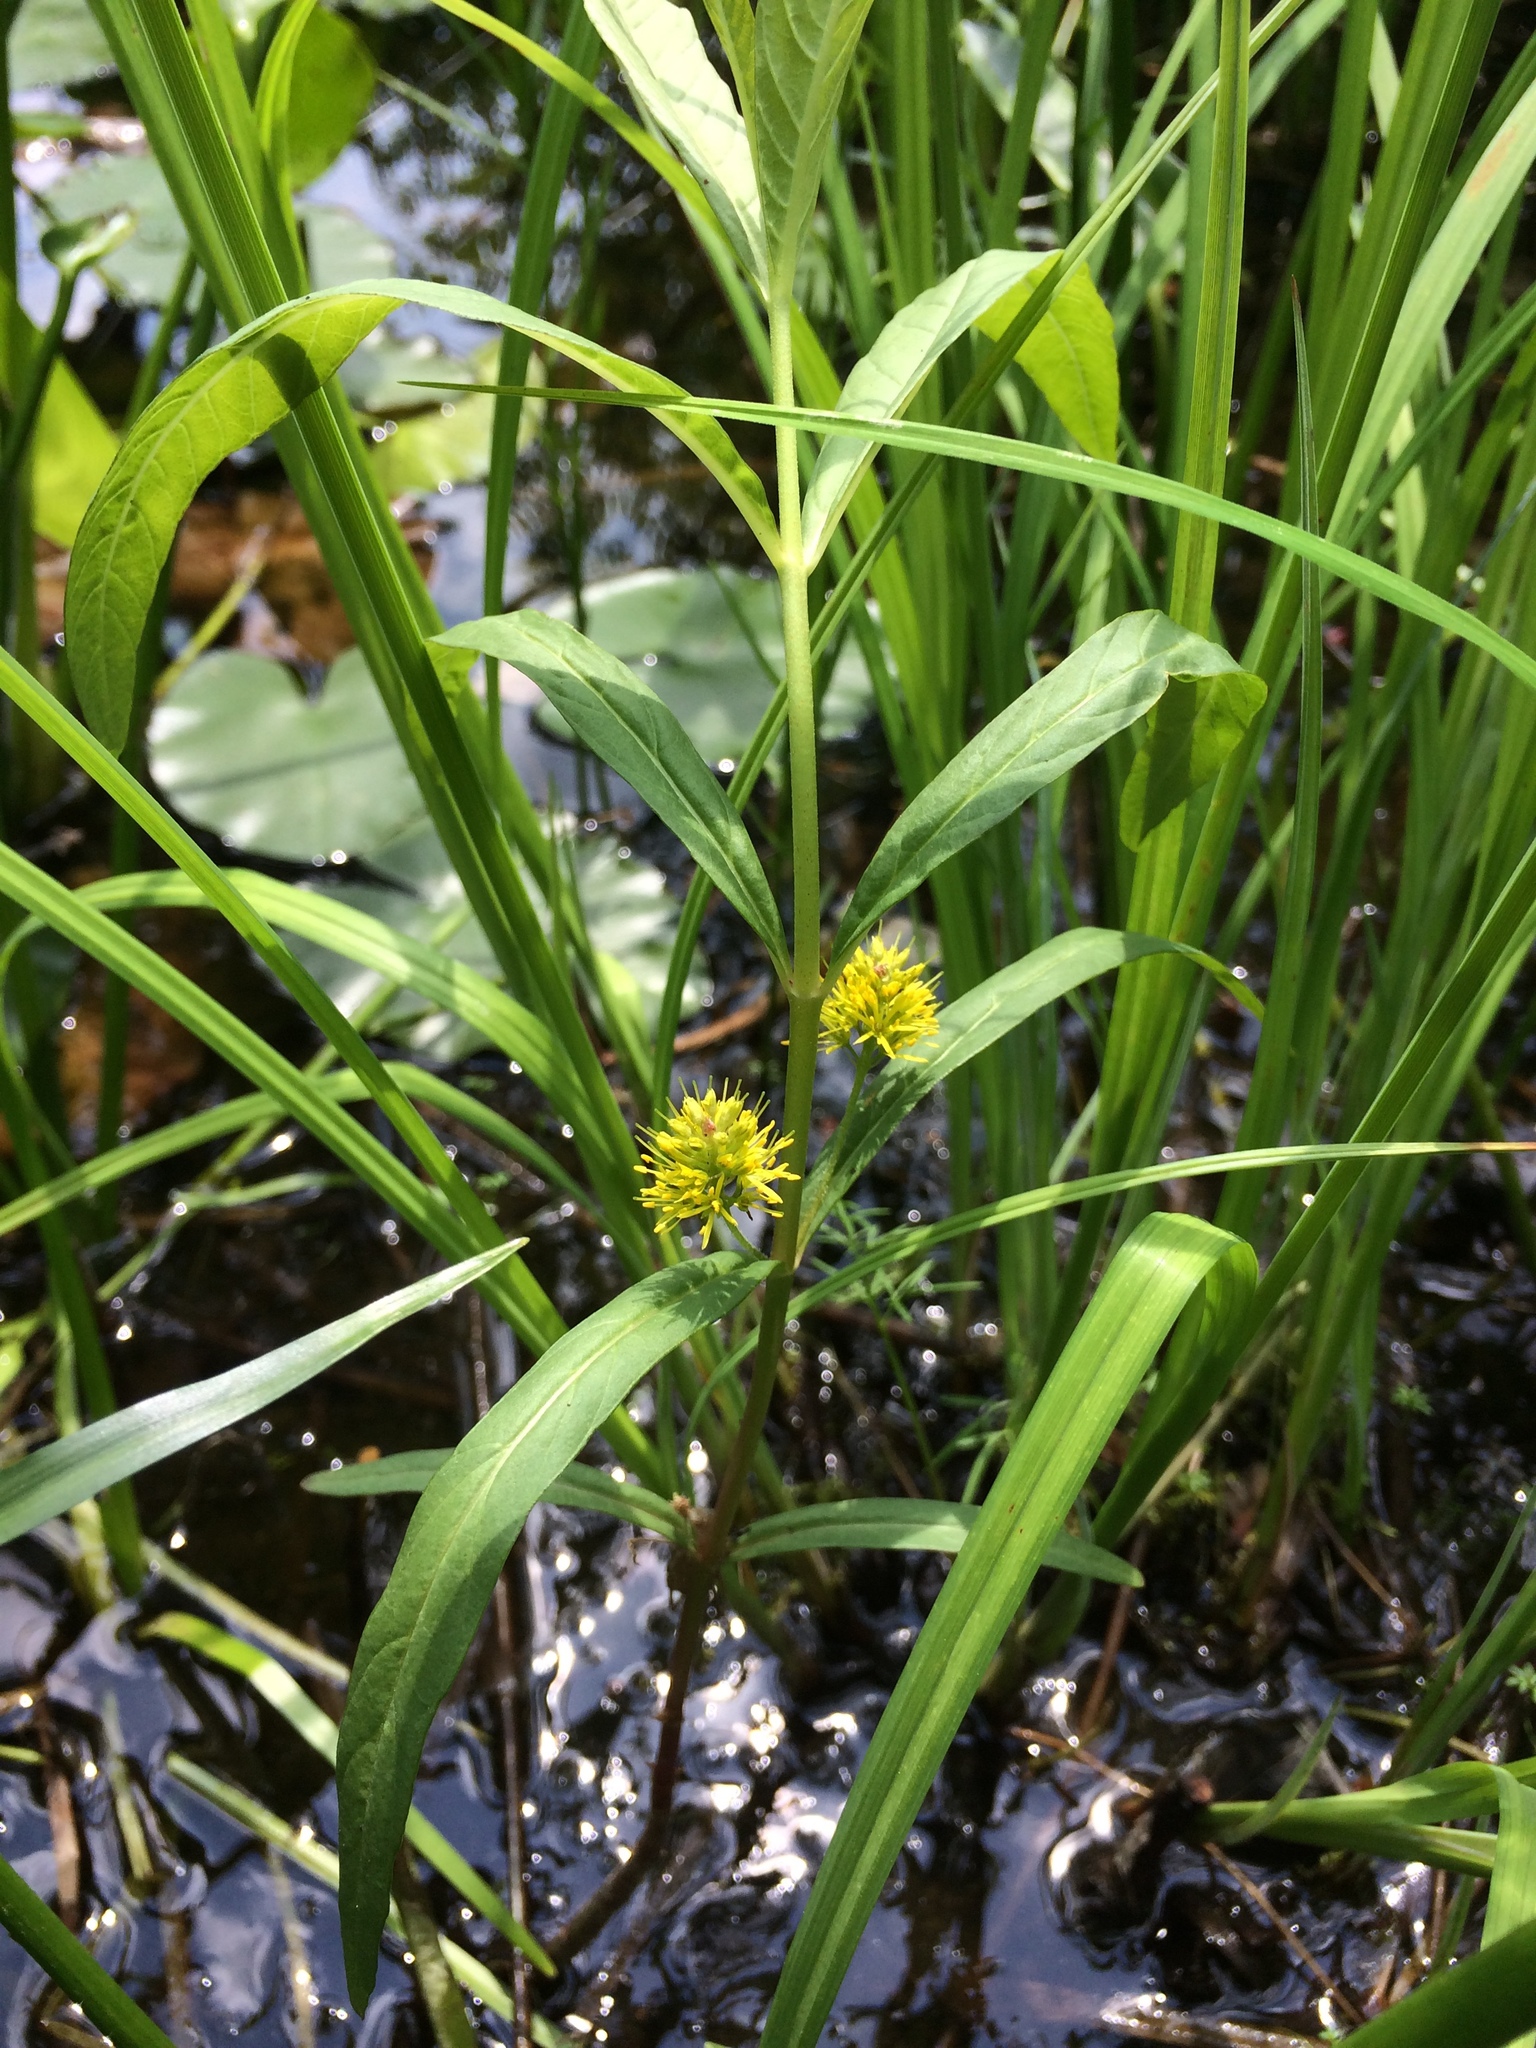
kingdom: Plantae
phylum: Tracheophyta
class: Magnoliopsida
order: Ericales
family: Primulaceae
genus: Lysimachia
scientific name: Lysimachia thyrsiflora
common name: Tufted loosestrife
